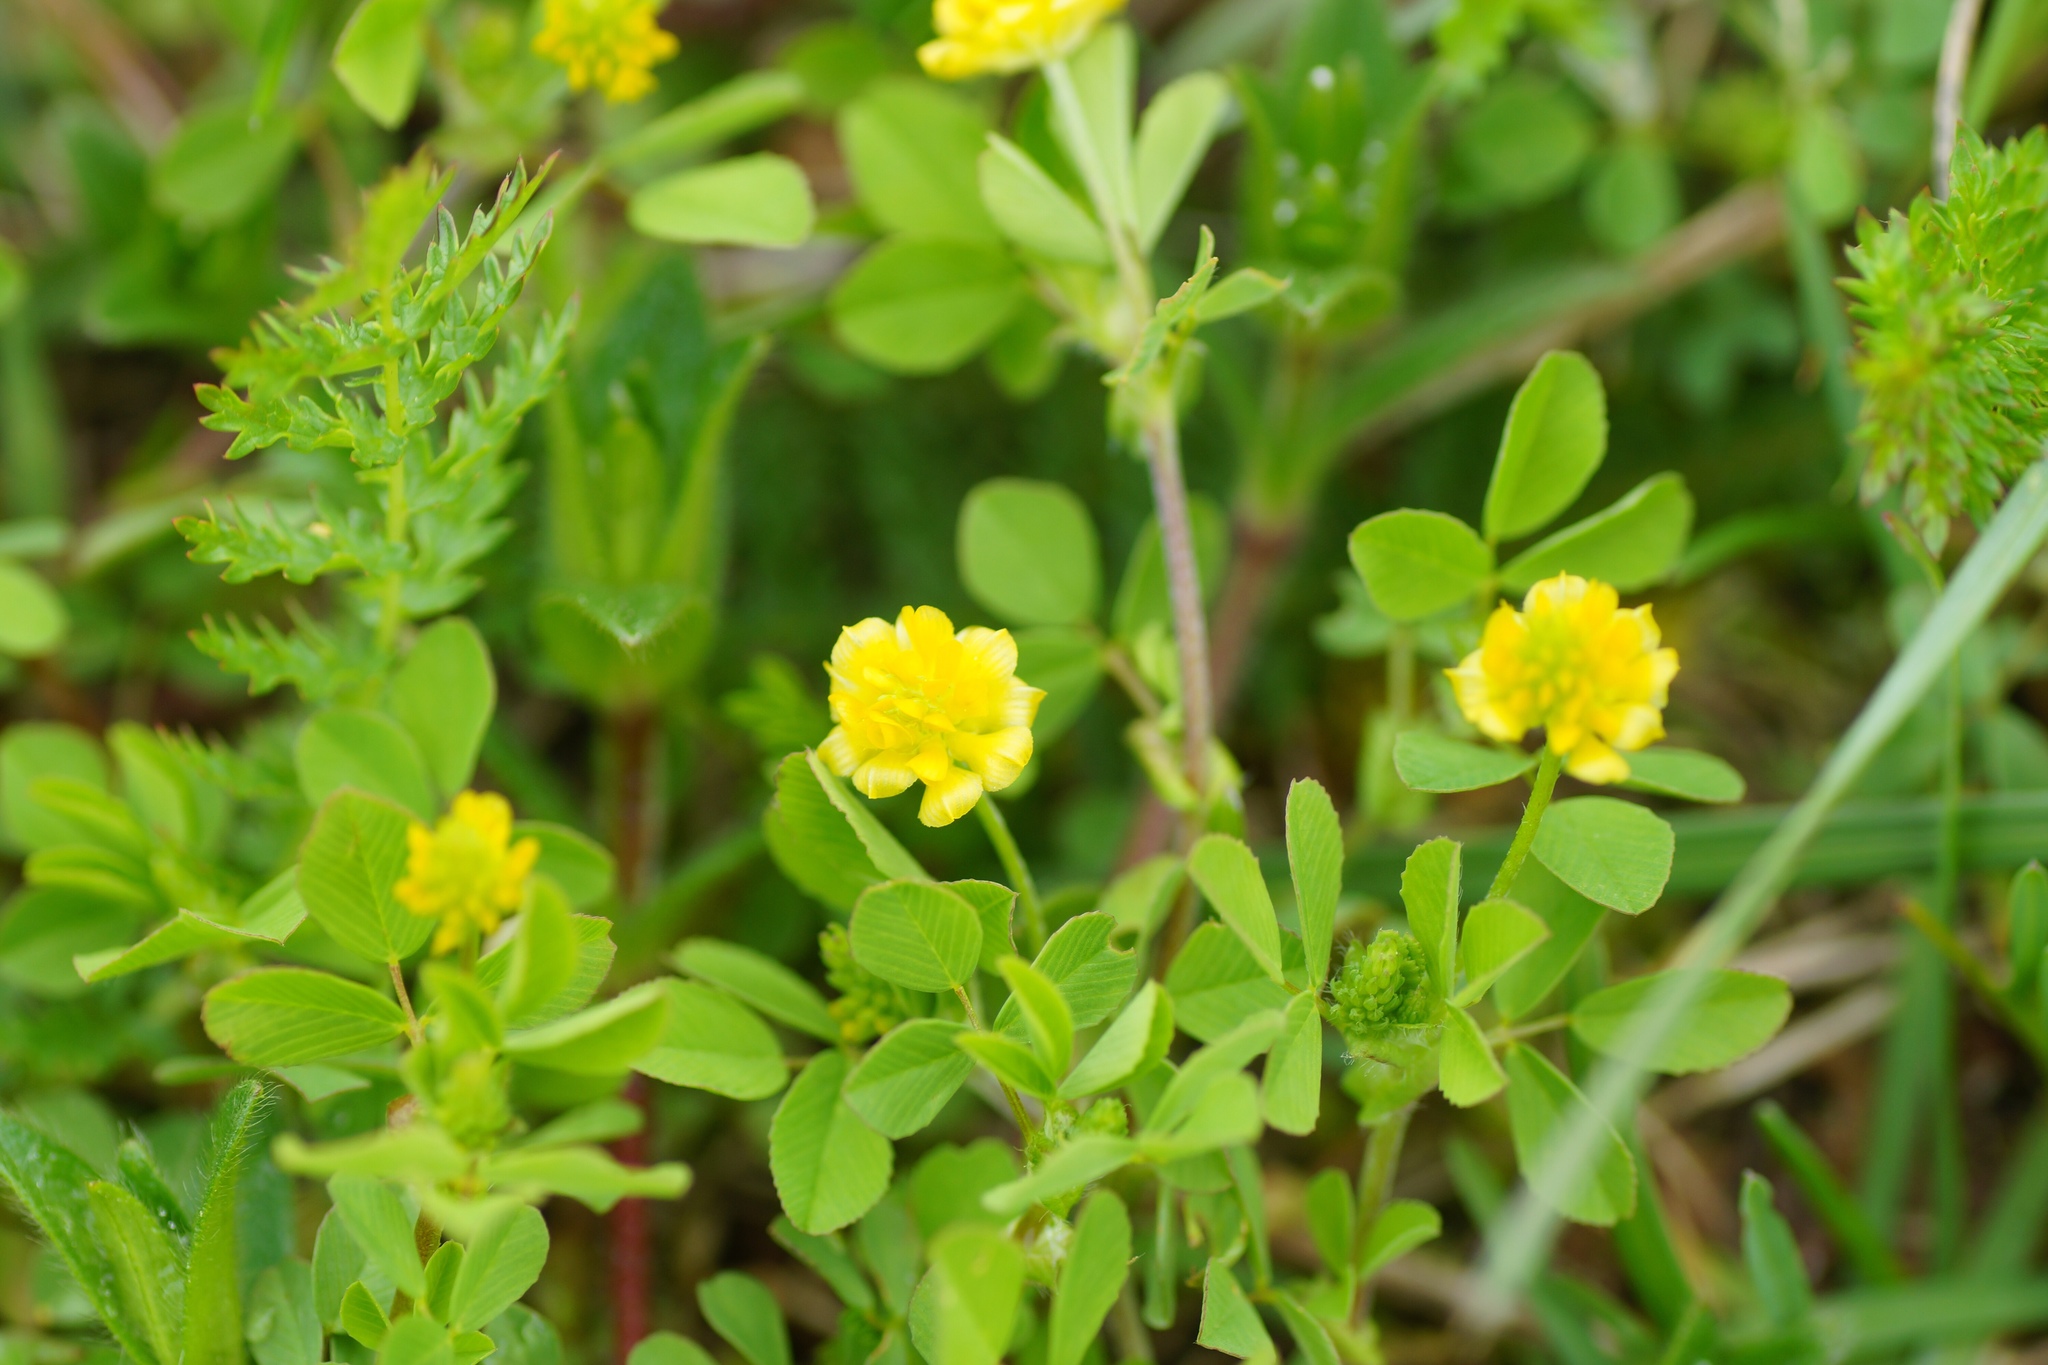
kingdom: Plantae
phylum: Tracheophyta
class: Magnoliopsida
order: Fabales
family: Fabaceae
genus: Trifolium
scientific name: Trifolium campestre
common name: Field clover
